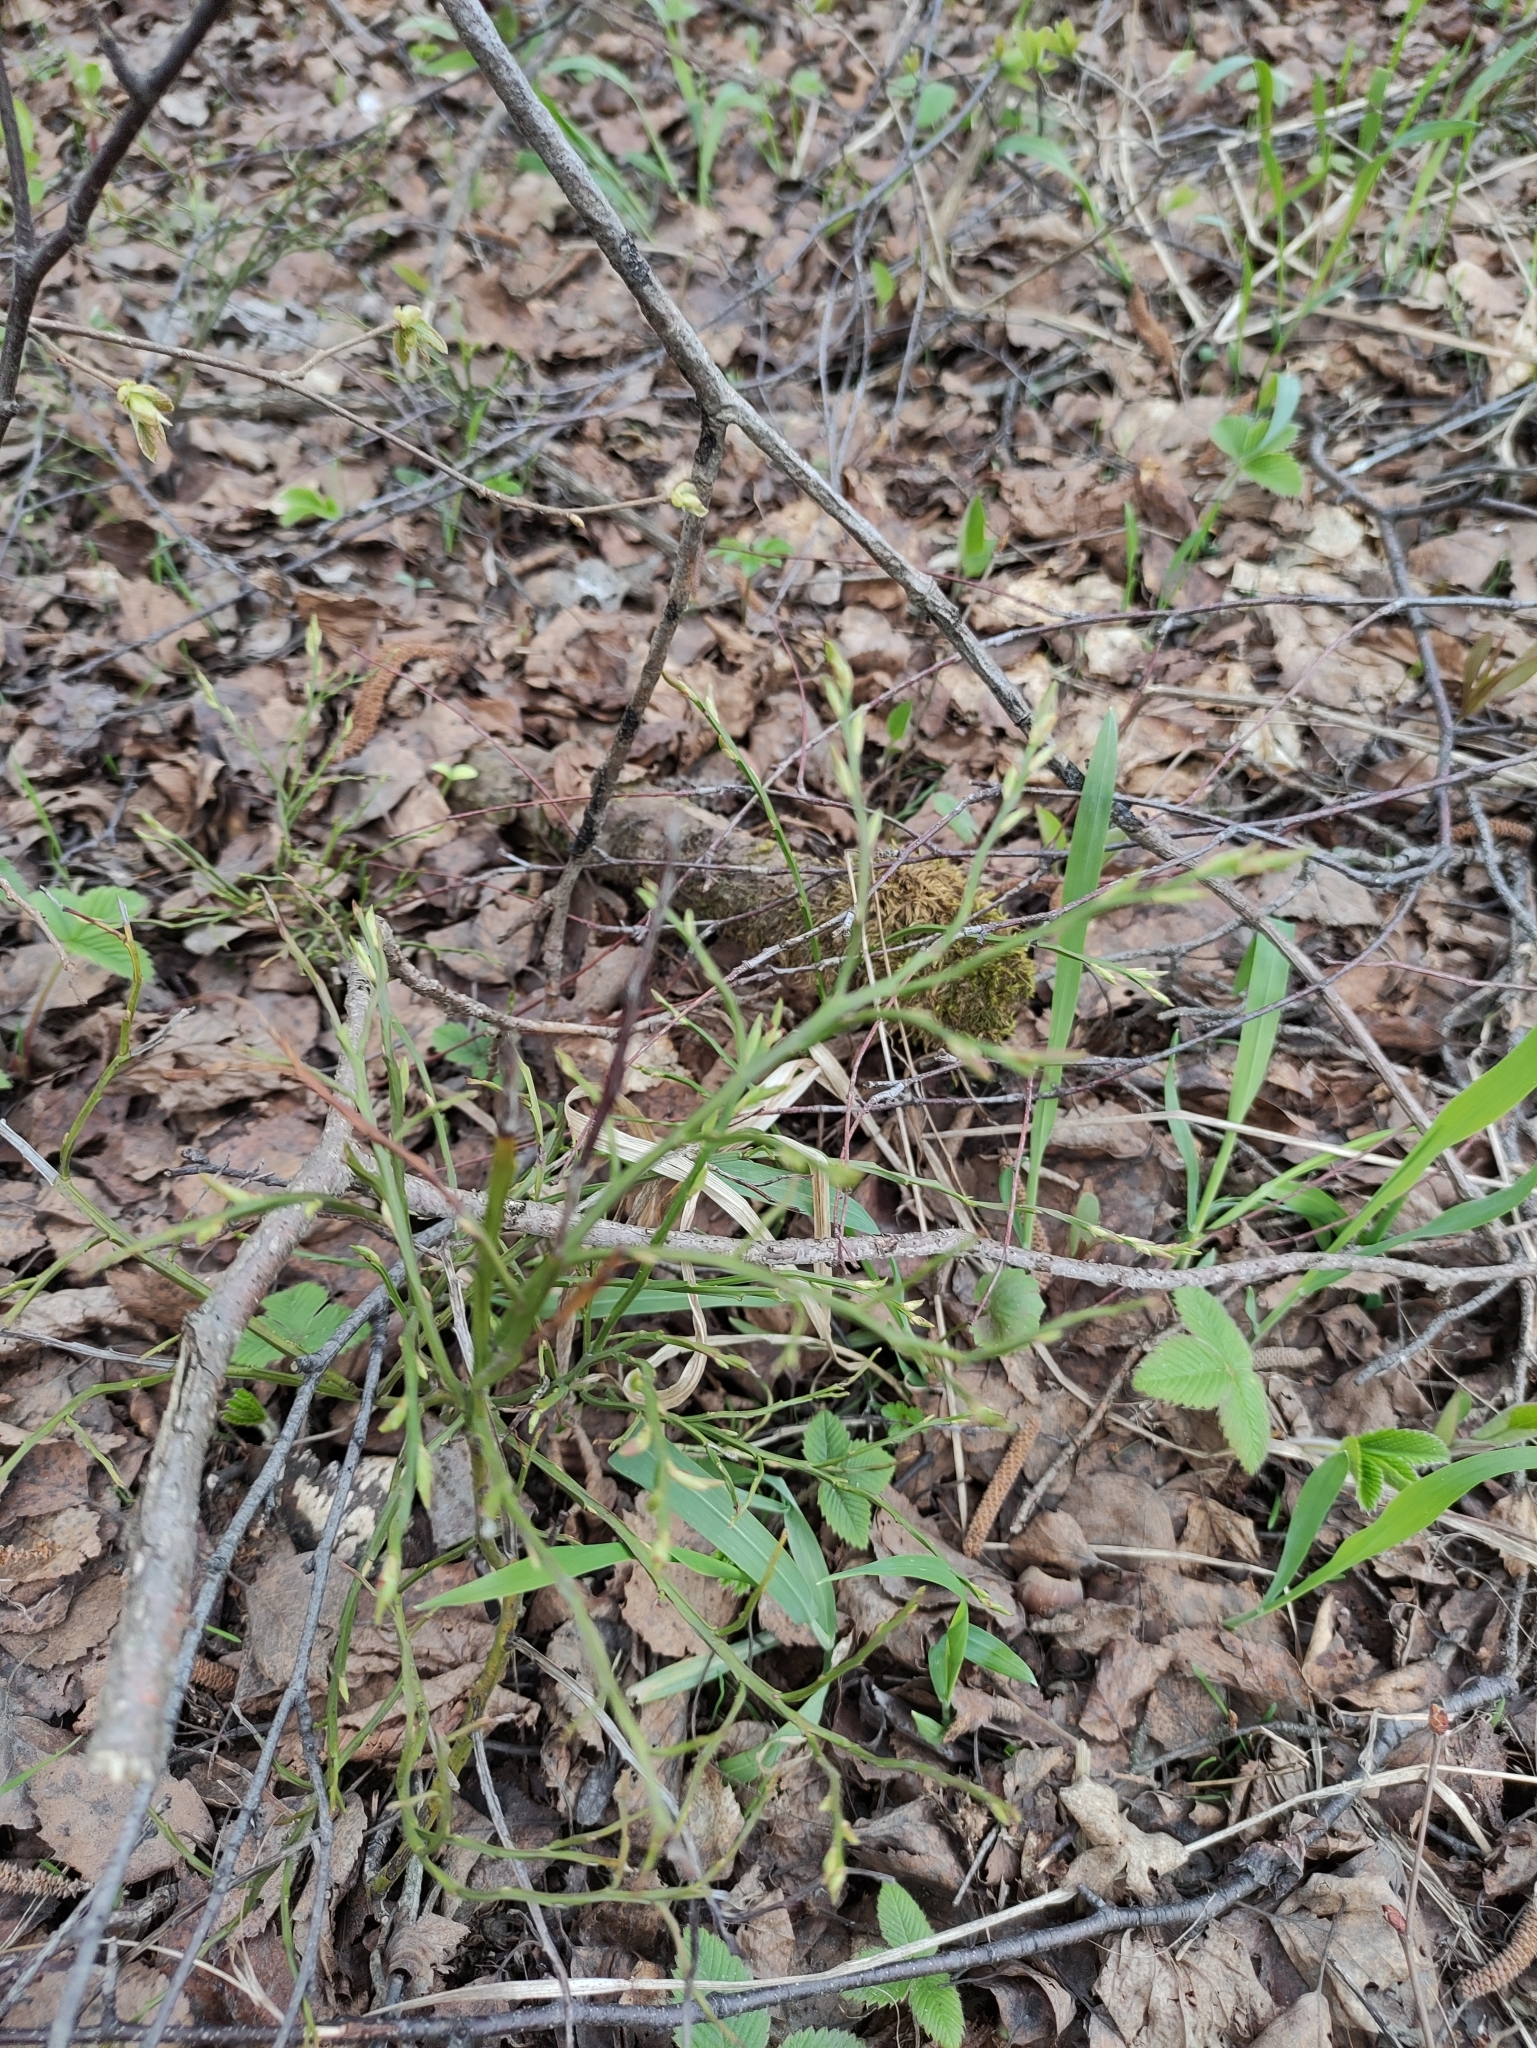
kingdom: Plantae
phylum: Tracheophyta
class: Magnoliopsida
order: Ericales
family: Ericaceae
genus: Vaccinium
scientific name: Vaccinium myrtillus
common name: Bilberry
